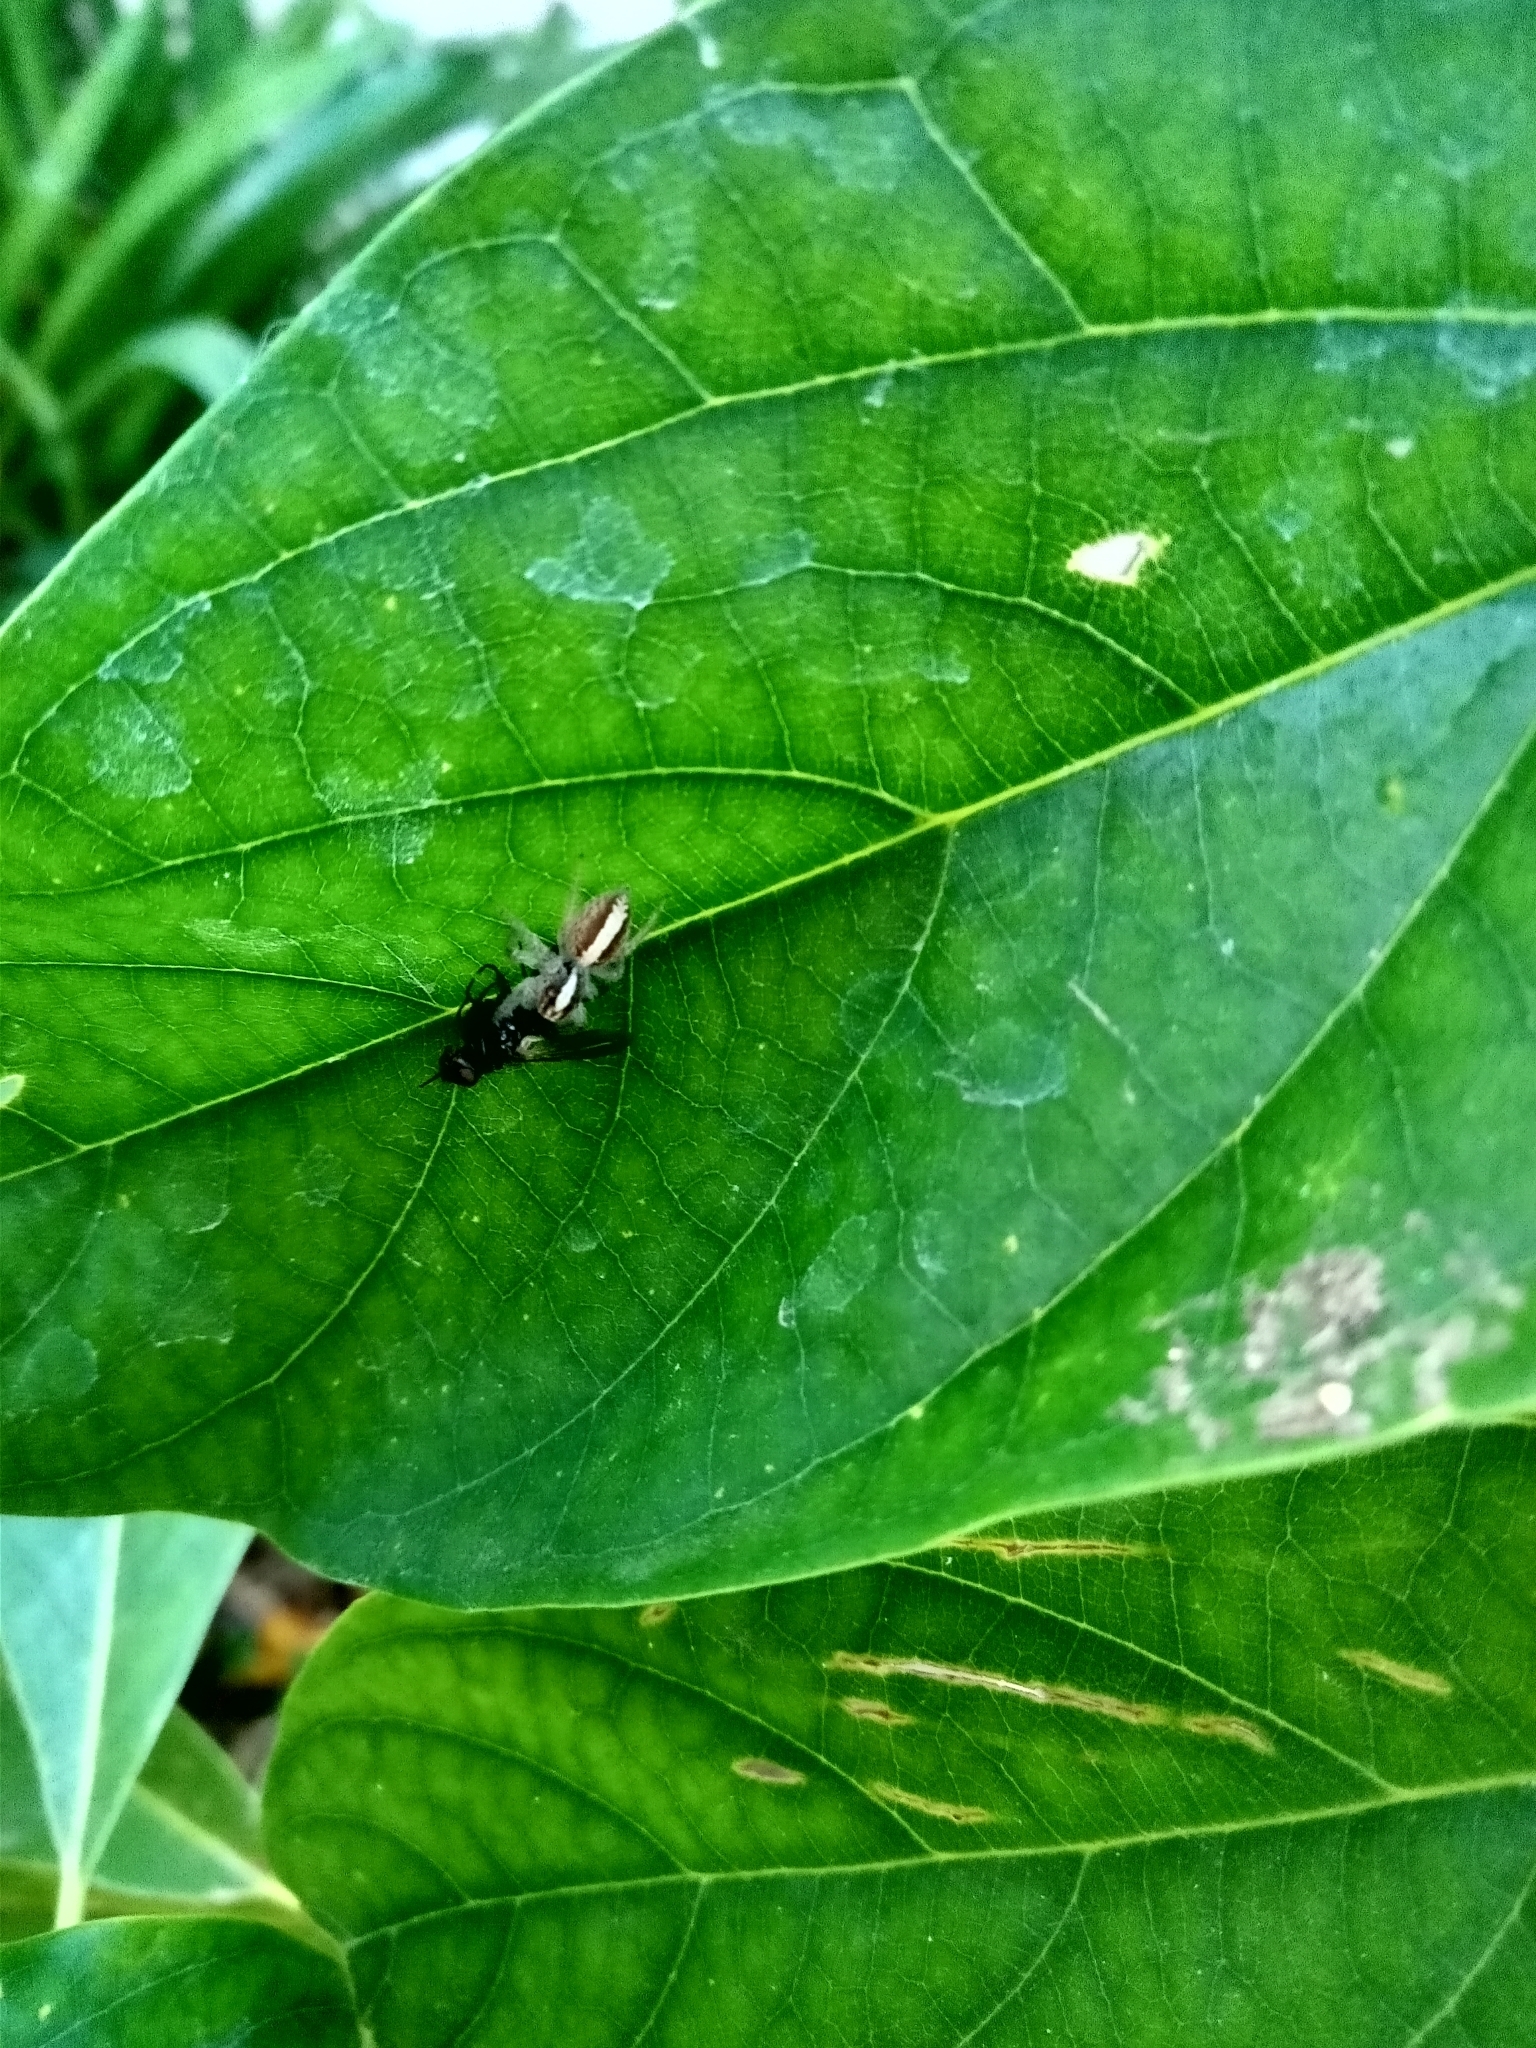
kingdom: Animalia
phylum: Arthropoda
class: Arachnida
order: Araneae
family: Salticidae
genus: Megafreya
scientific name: Megafreya sutrix
